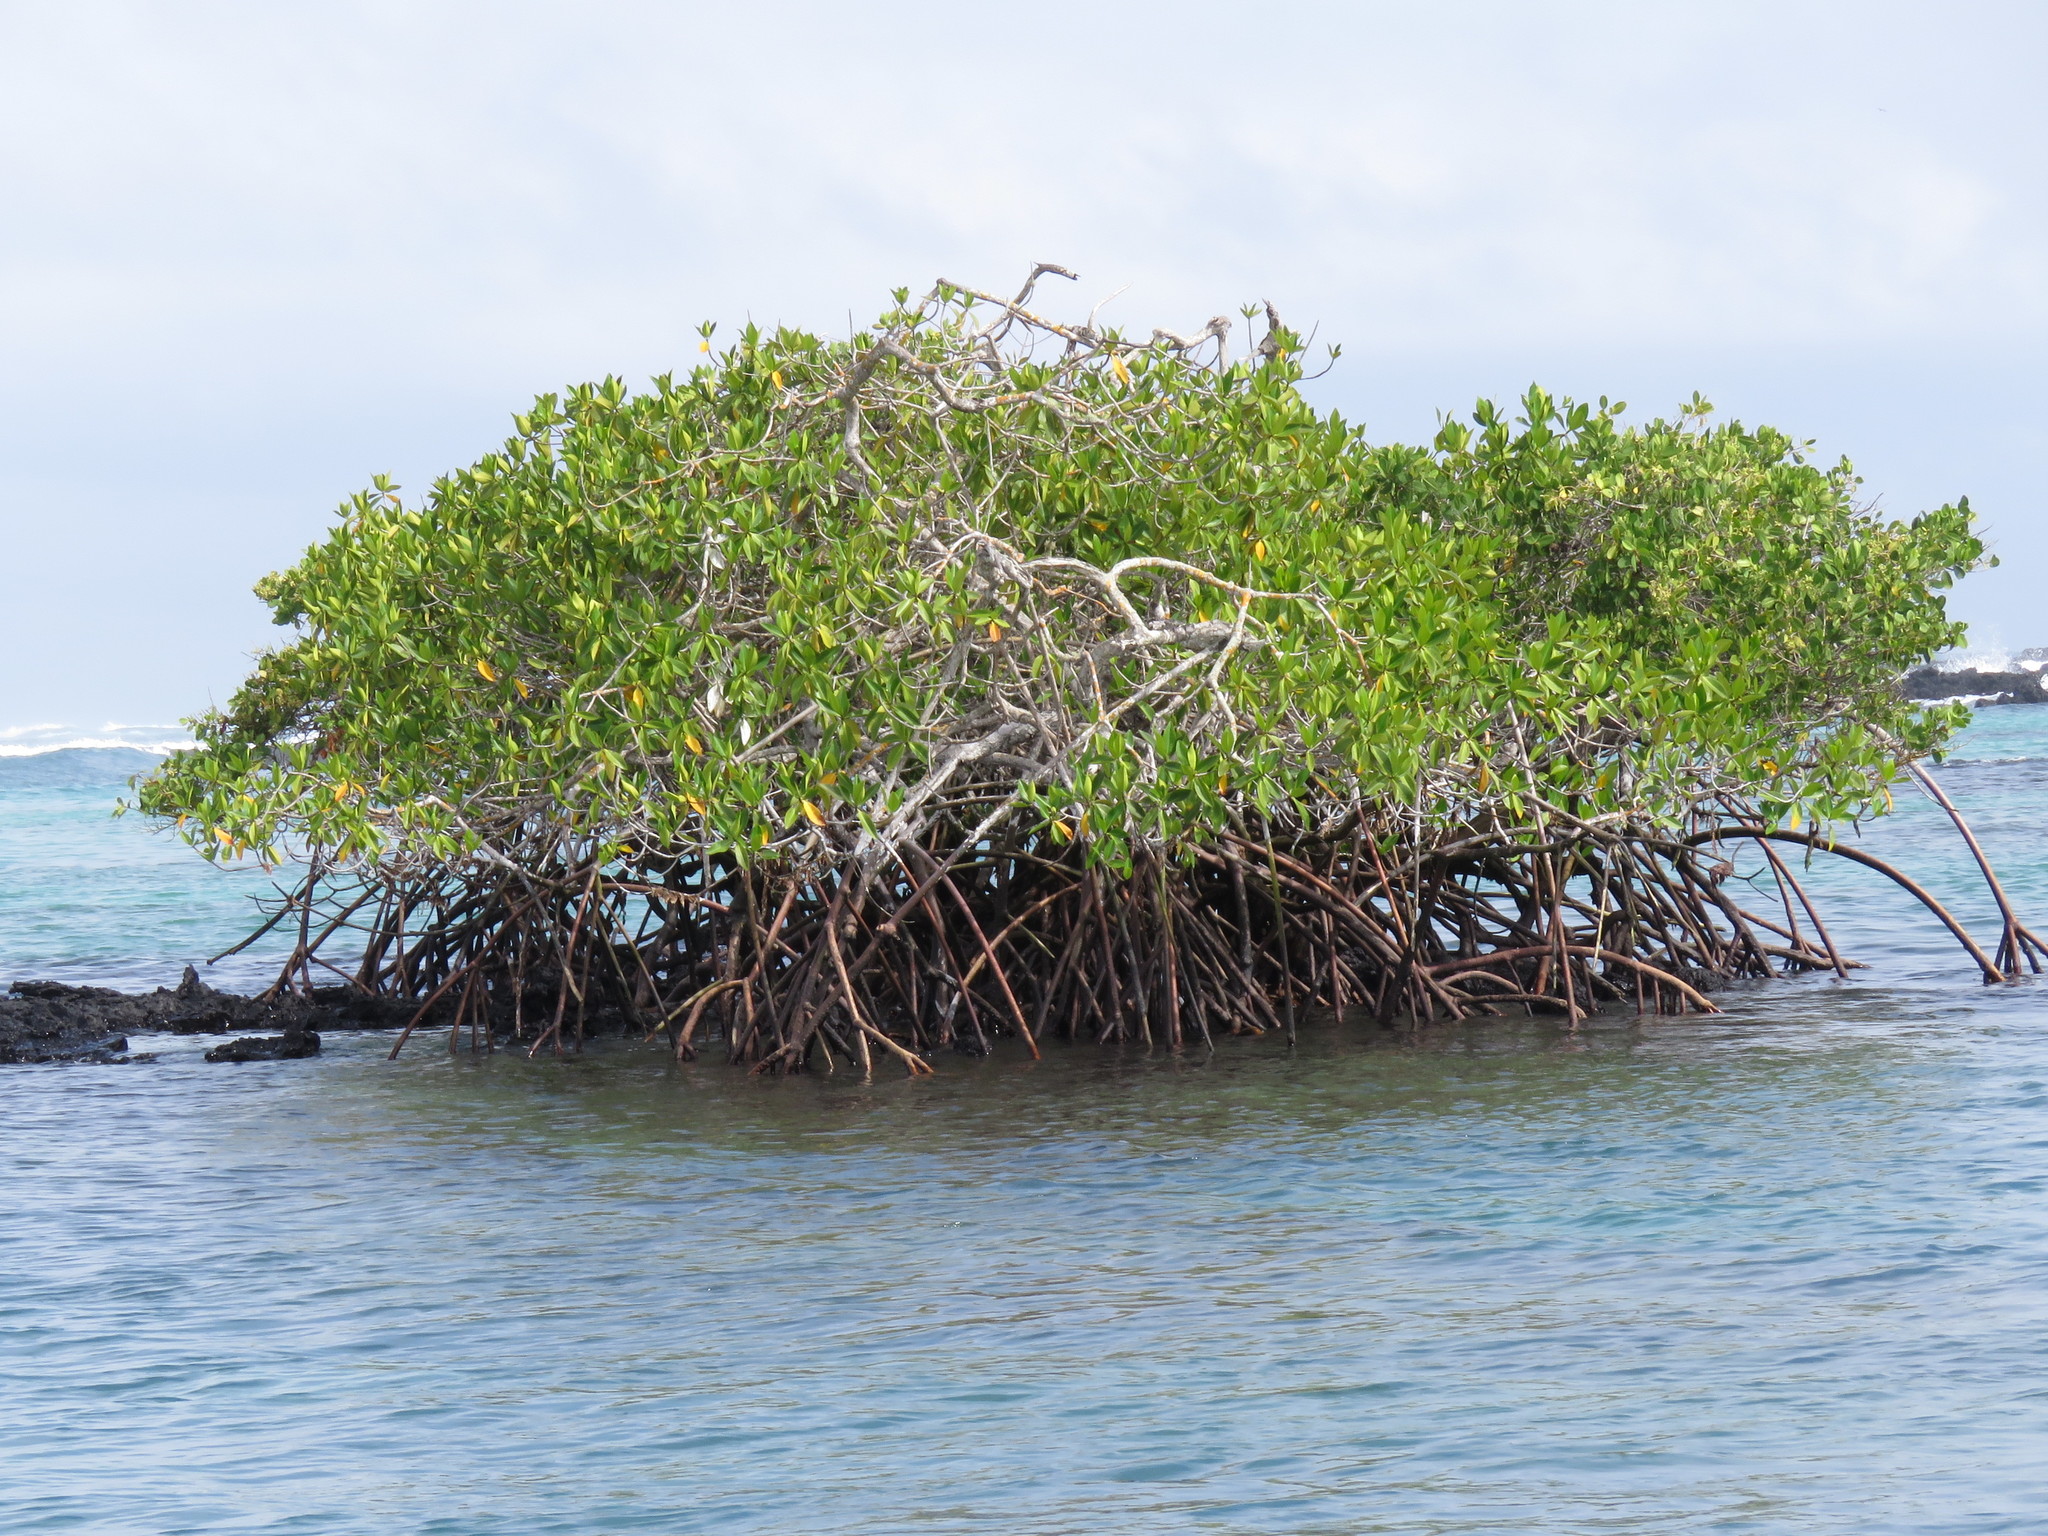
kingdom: Plantae
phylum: Tracheophyta
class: Magnoliopsida
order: Malpighiales
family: Rhizophoraceae
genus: Rhizophora
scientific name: Rhizophora mangle
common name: Red mangrove
